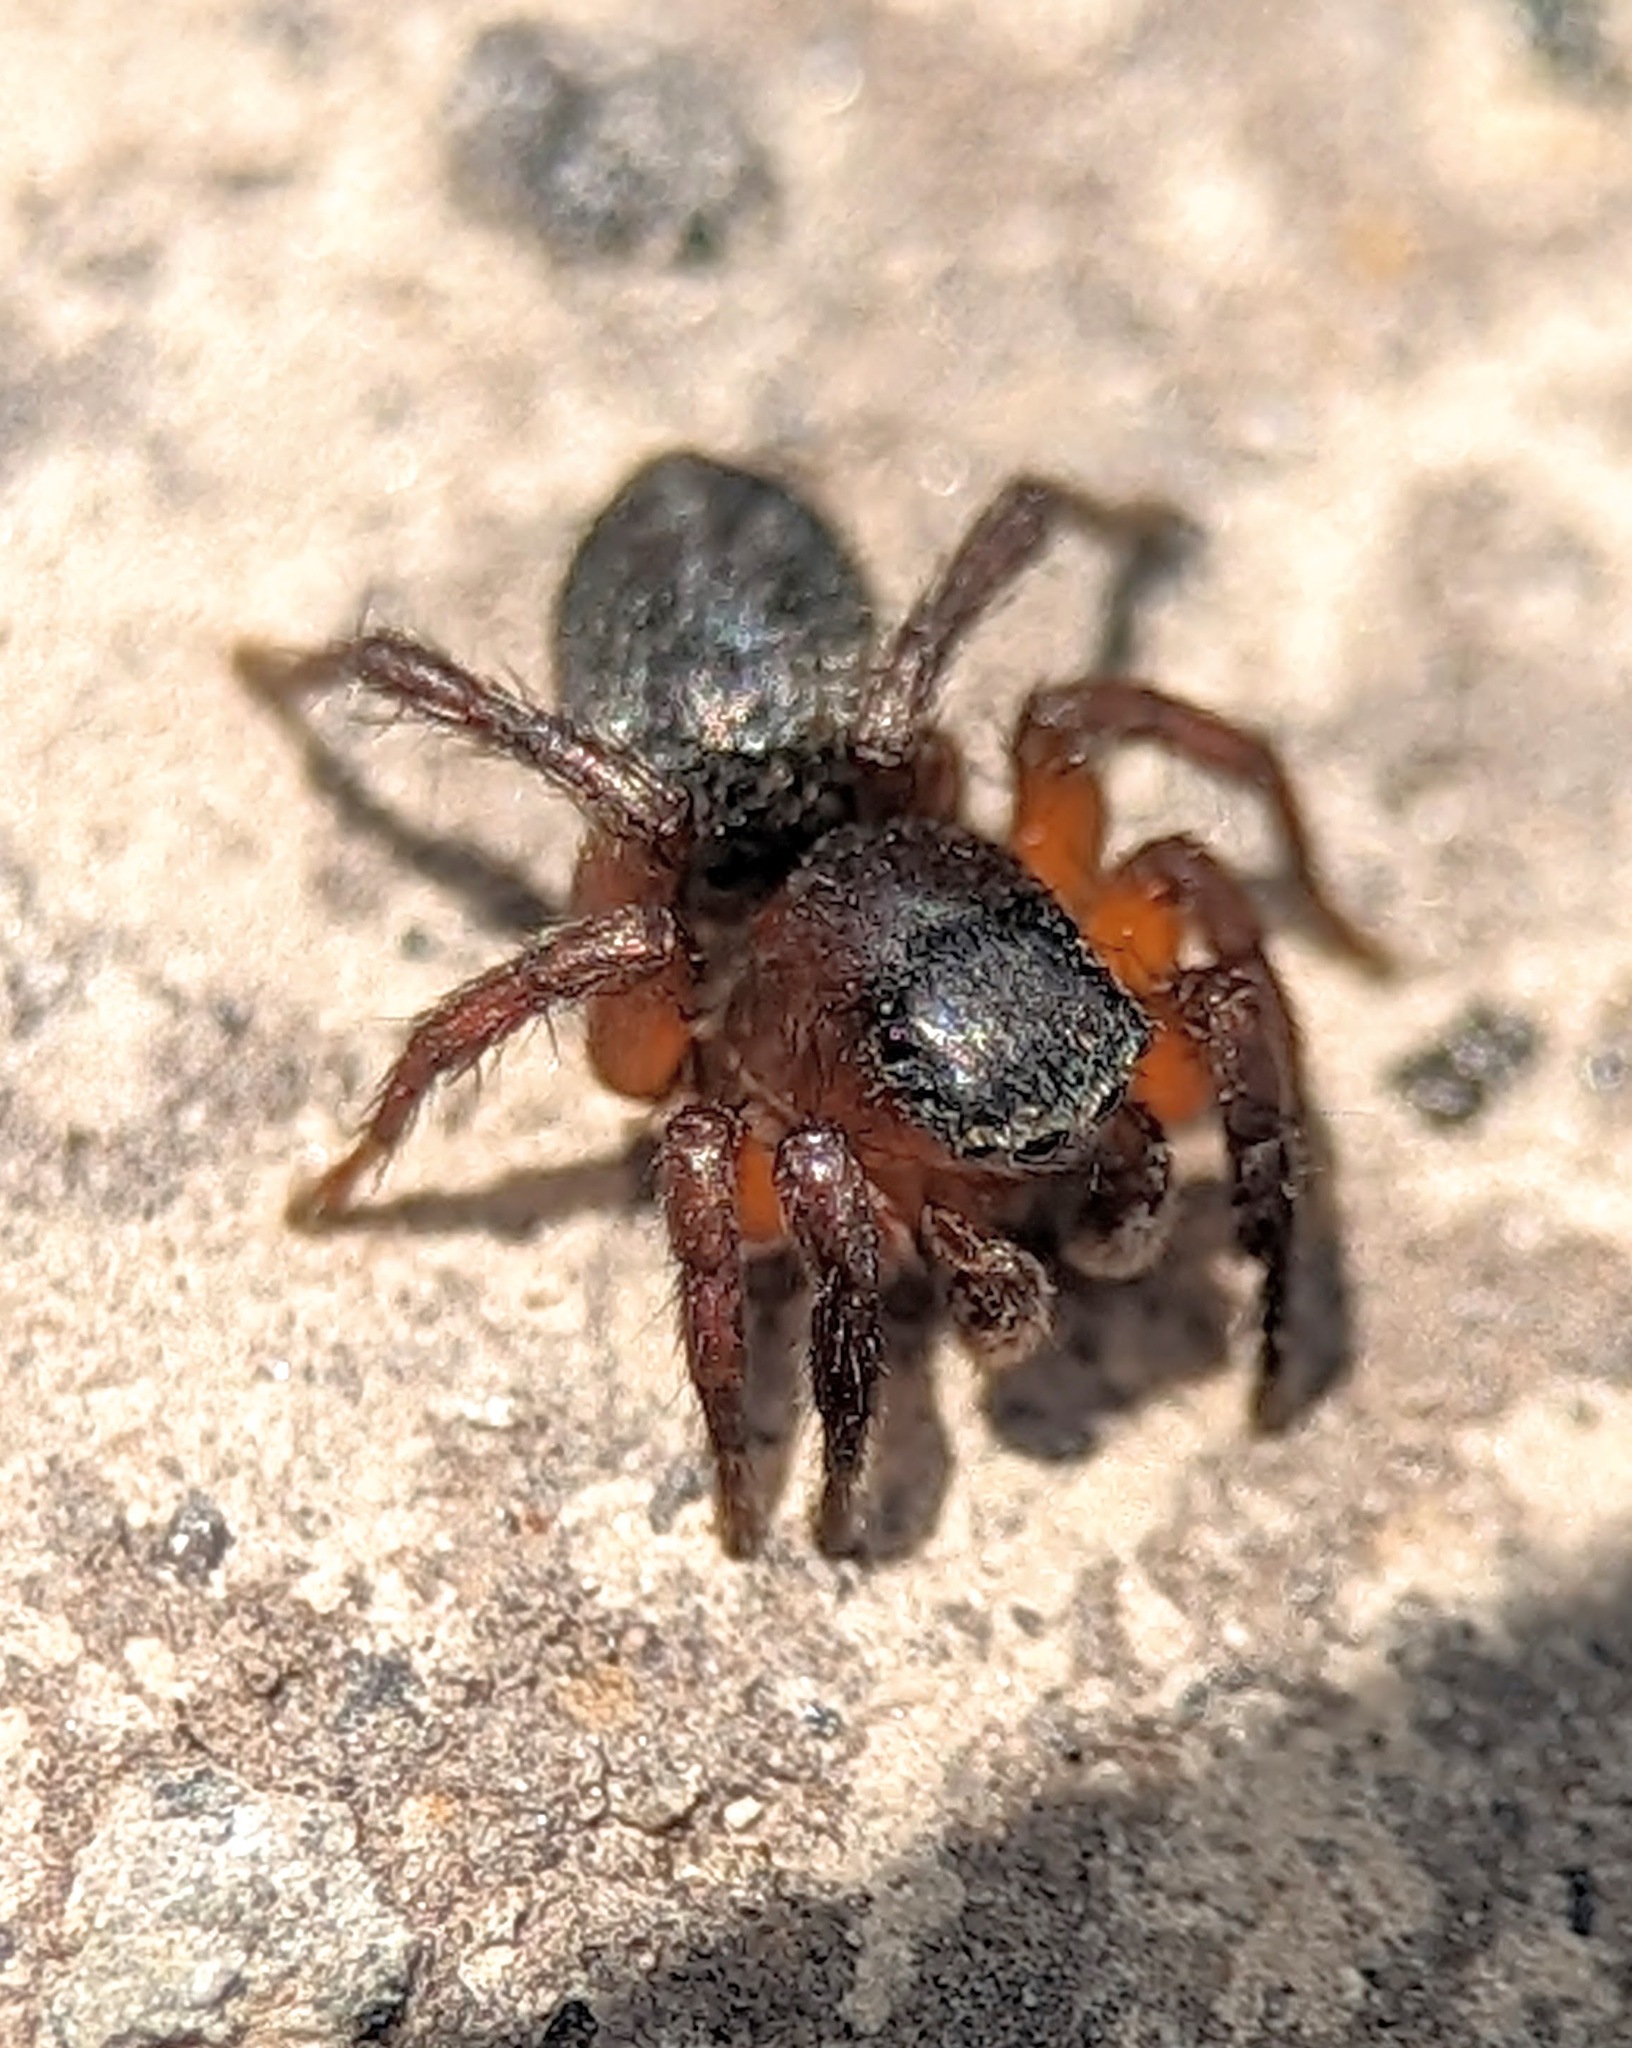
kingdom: Animalia
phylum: Arthropoda
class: Arachnida
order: Araneae
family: Salticidae
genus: Phlegra
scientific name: Phlegra fasciata
